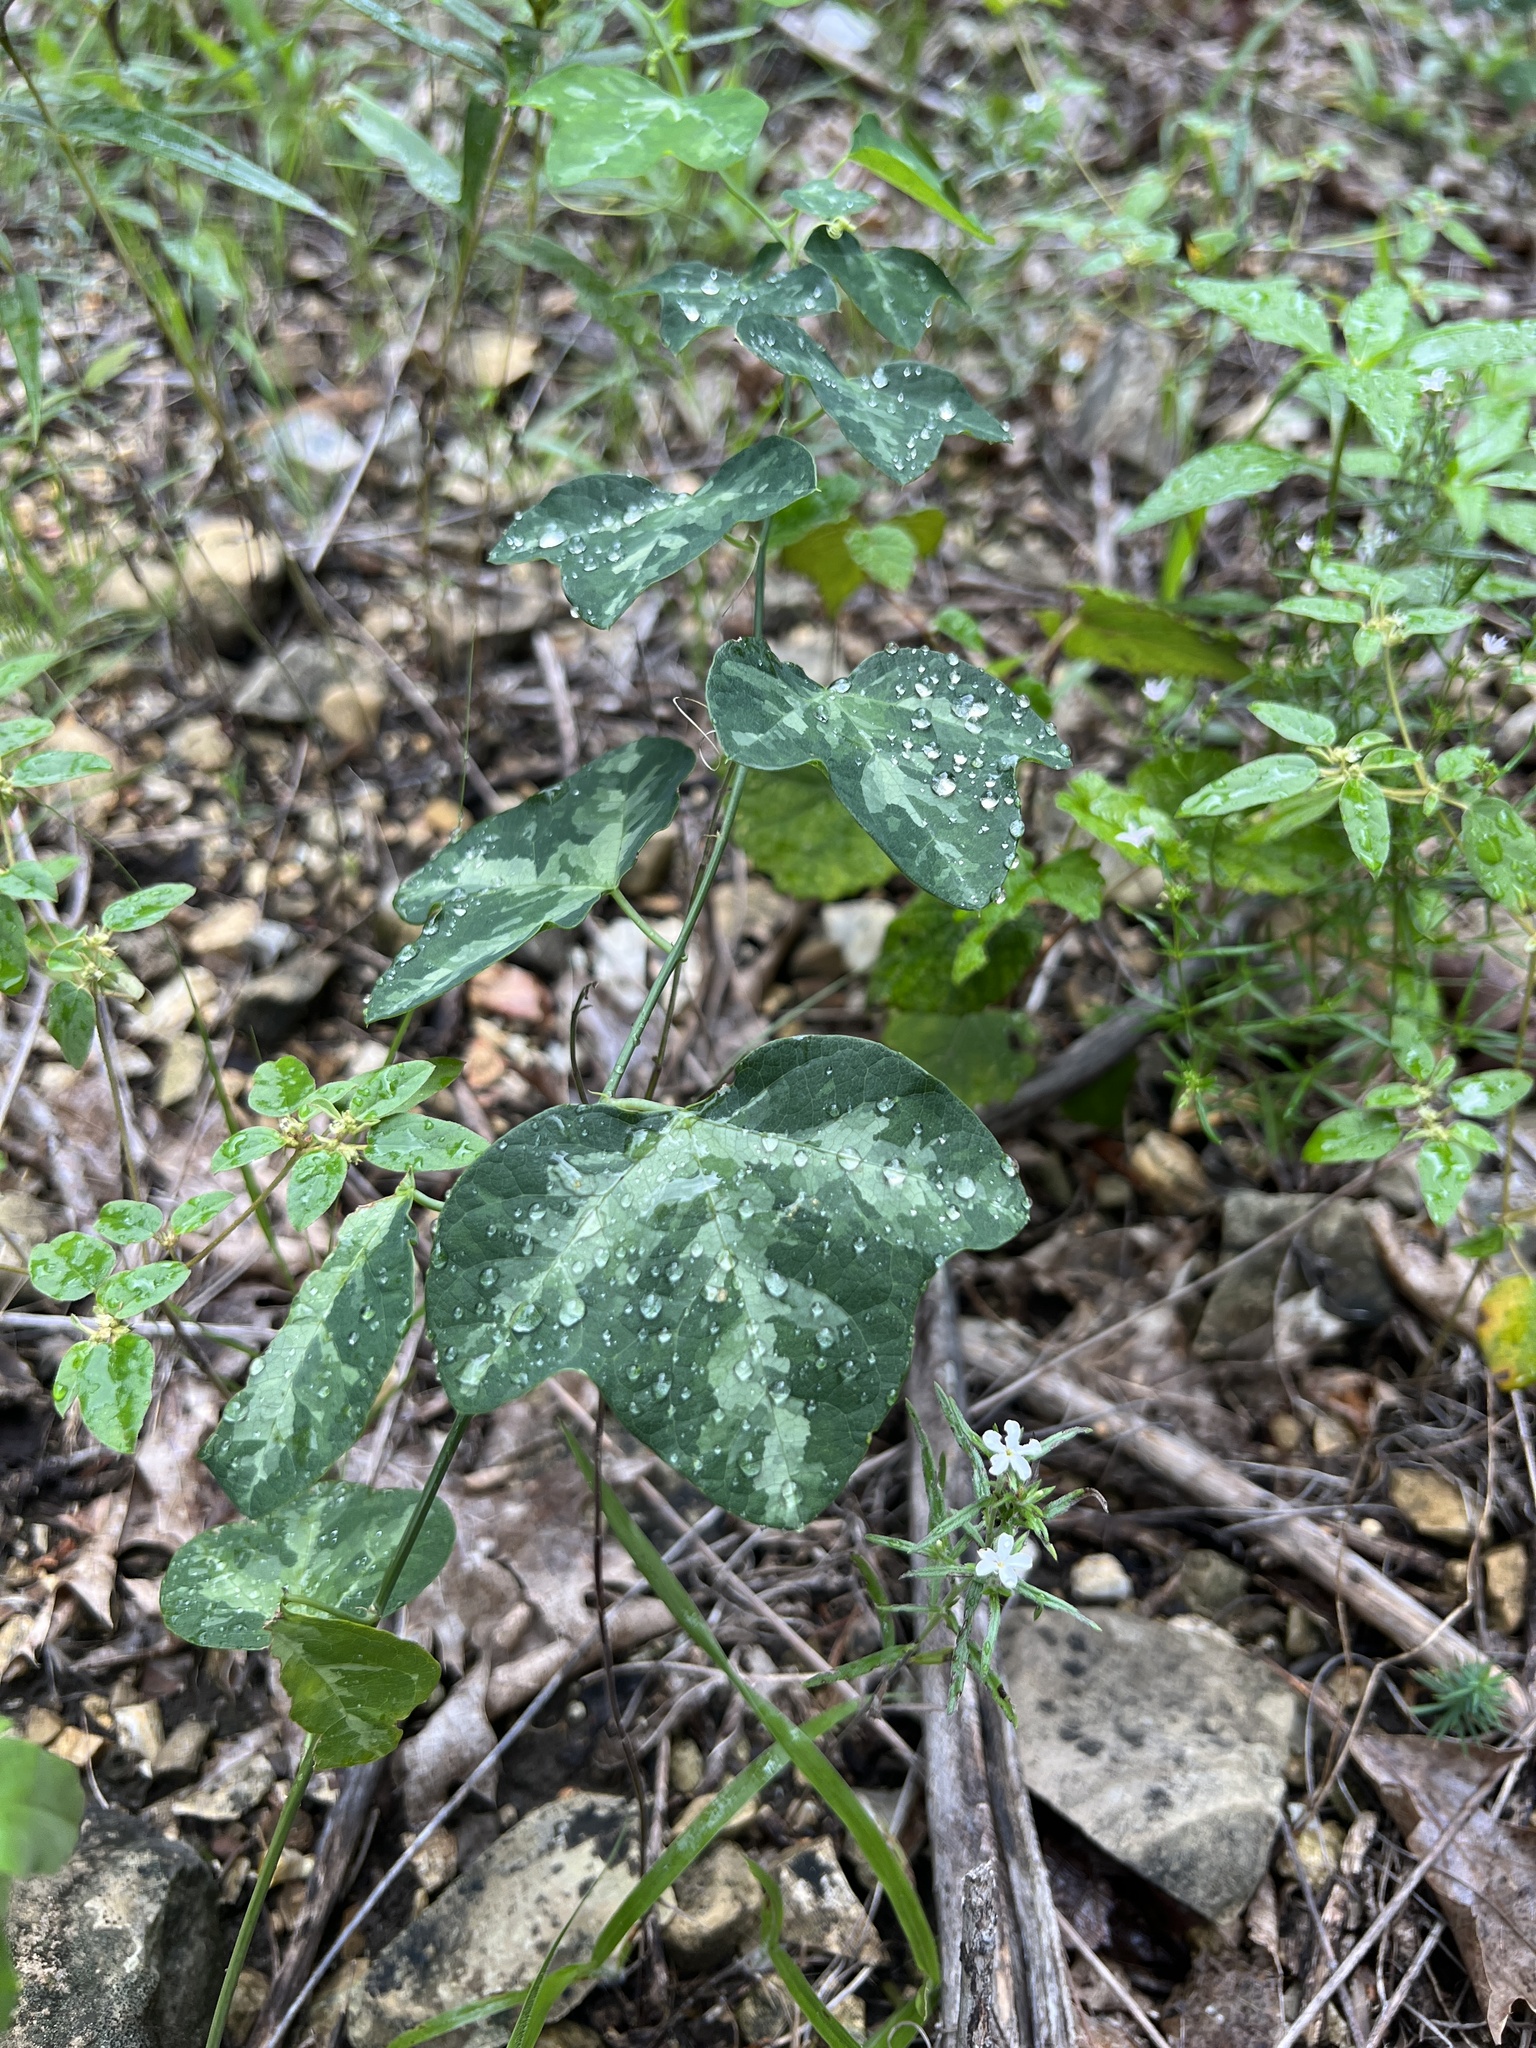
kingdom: Plantae
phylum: Tracheophyta
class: Magnoliopsida
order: Malpighiales
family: Passifloraceae
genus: Passiflora
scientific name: Passiflora lutea
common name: Yellow passionflower
